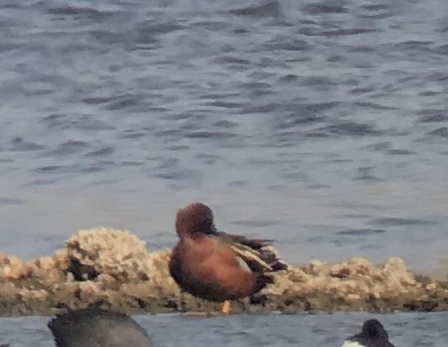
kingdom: Animalia
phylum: Chordata
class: Aves
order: Anseriformes
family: Anatidae
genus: Spatula
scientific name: Spatula cyanoptera
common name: Cinnamon teal
